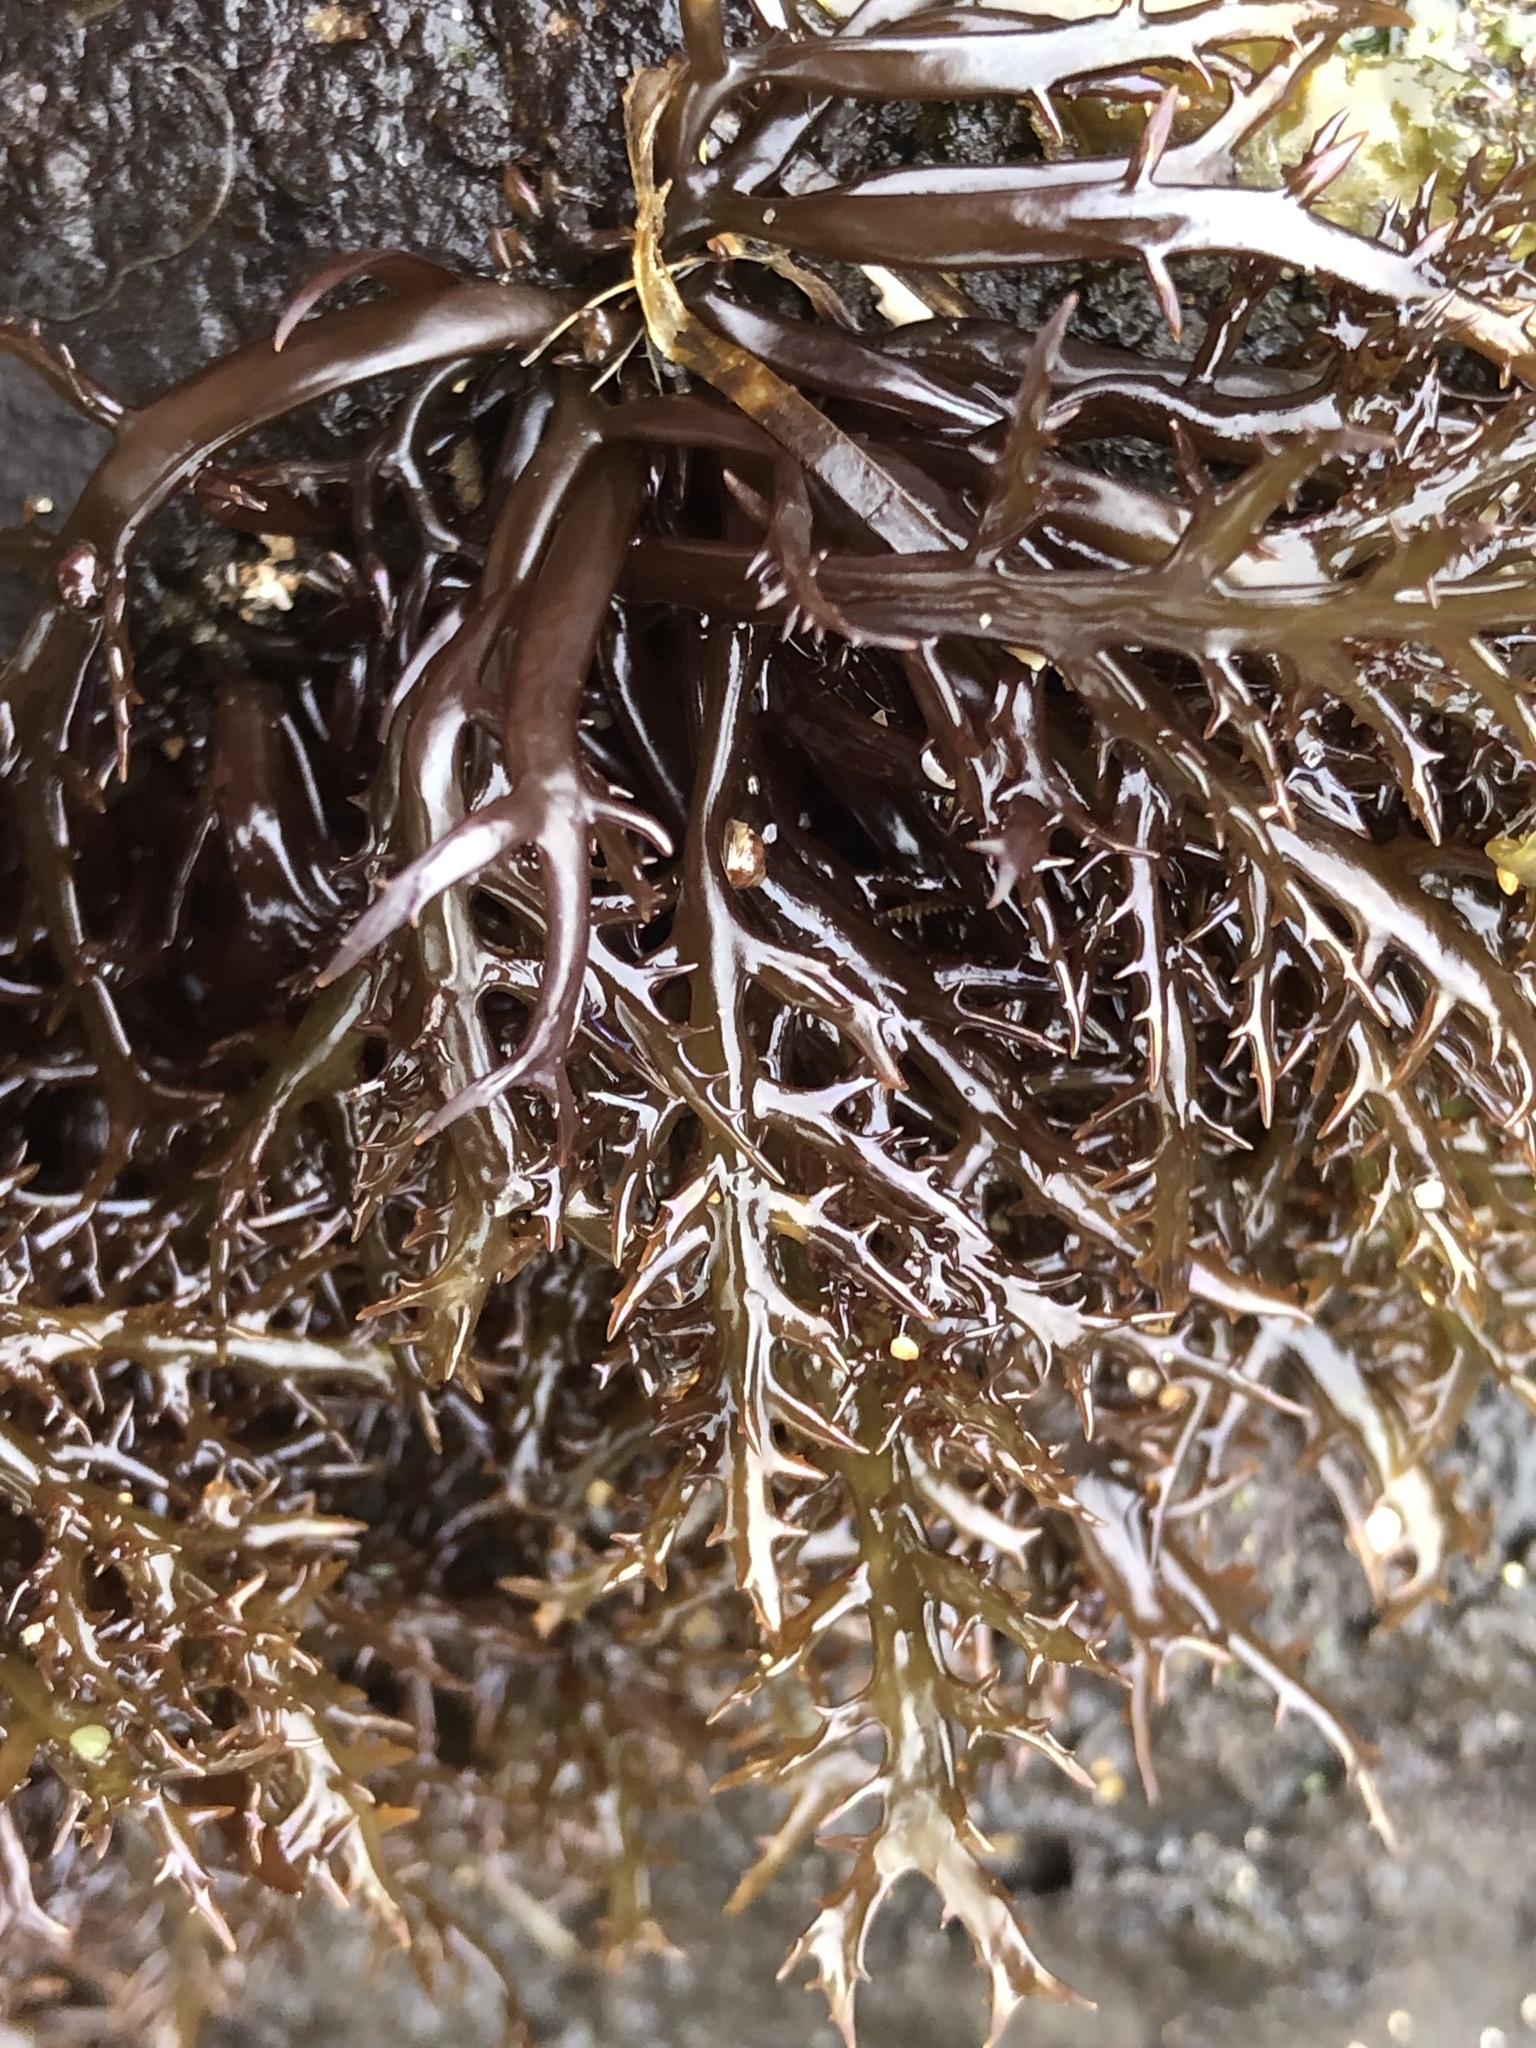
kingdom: Plantae
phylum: Rhodophyta
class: Florideophyceae
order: Gigartinales
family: Gigartinaceae
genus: Chondracanthus
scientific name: Chondracanthus canaliculatus
